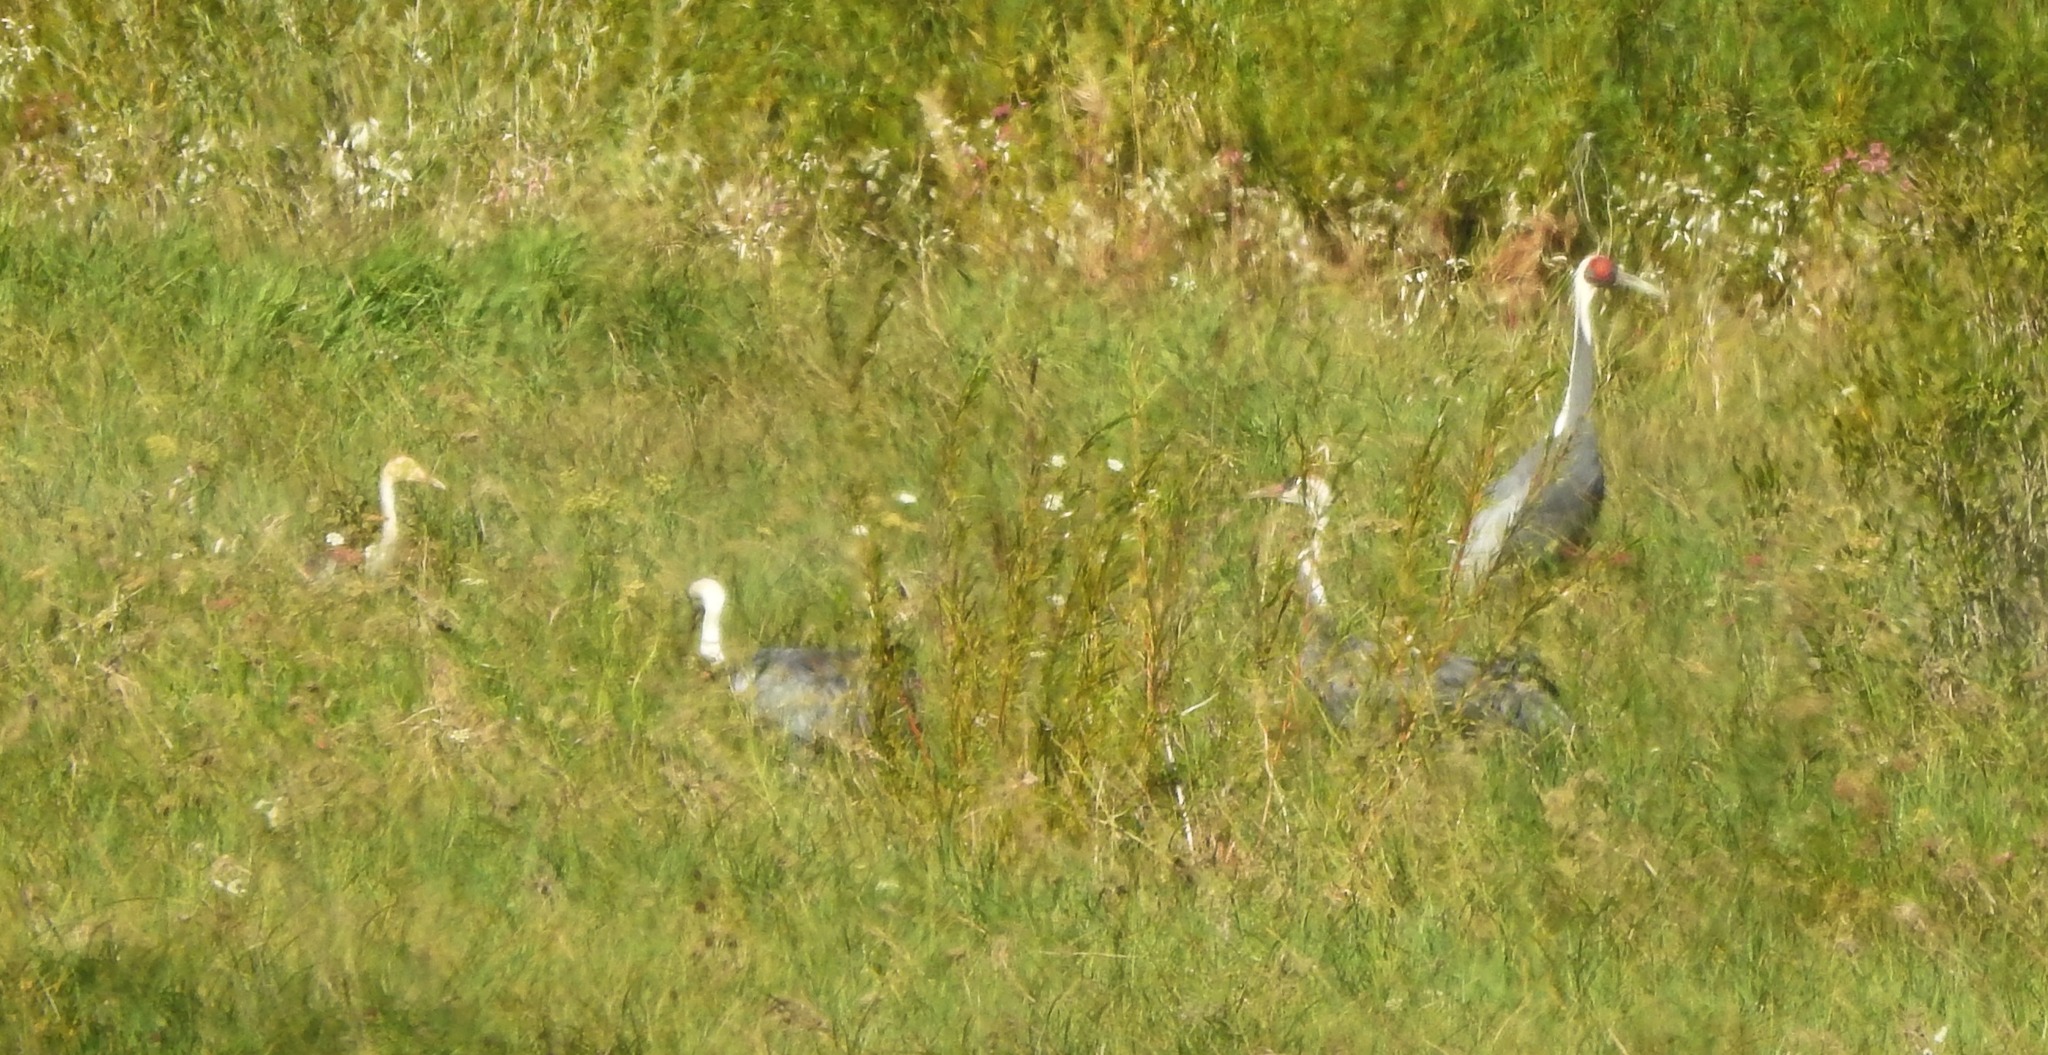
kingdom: Animalia
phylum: Chordata
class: Aves
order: Gruiformes
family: Gruidae
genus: Grus
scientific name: Grus vipio
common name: White-naped crane
